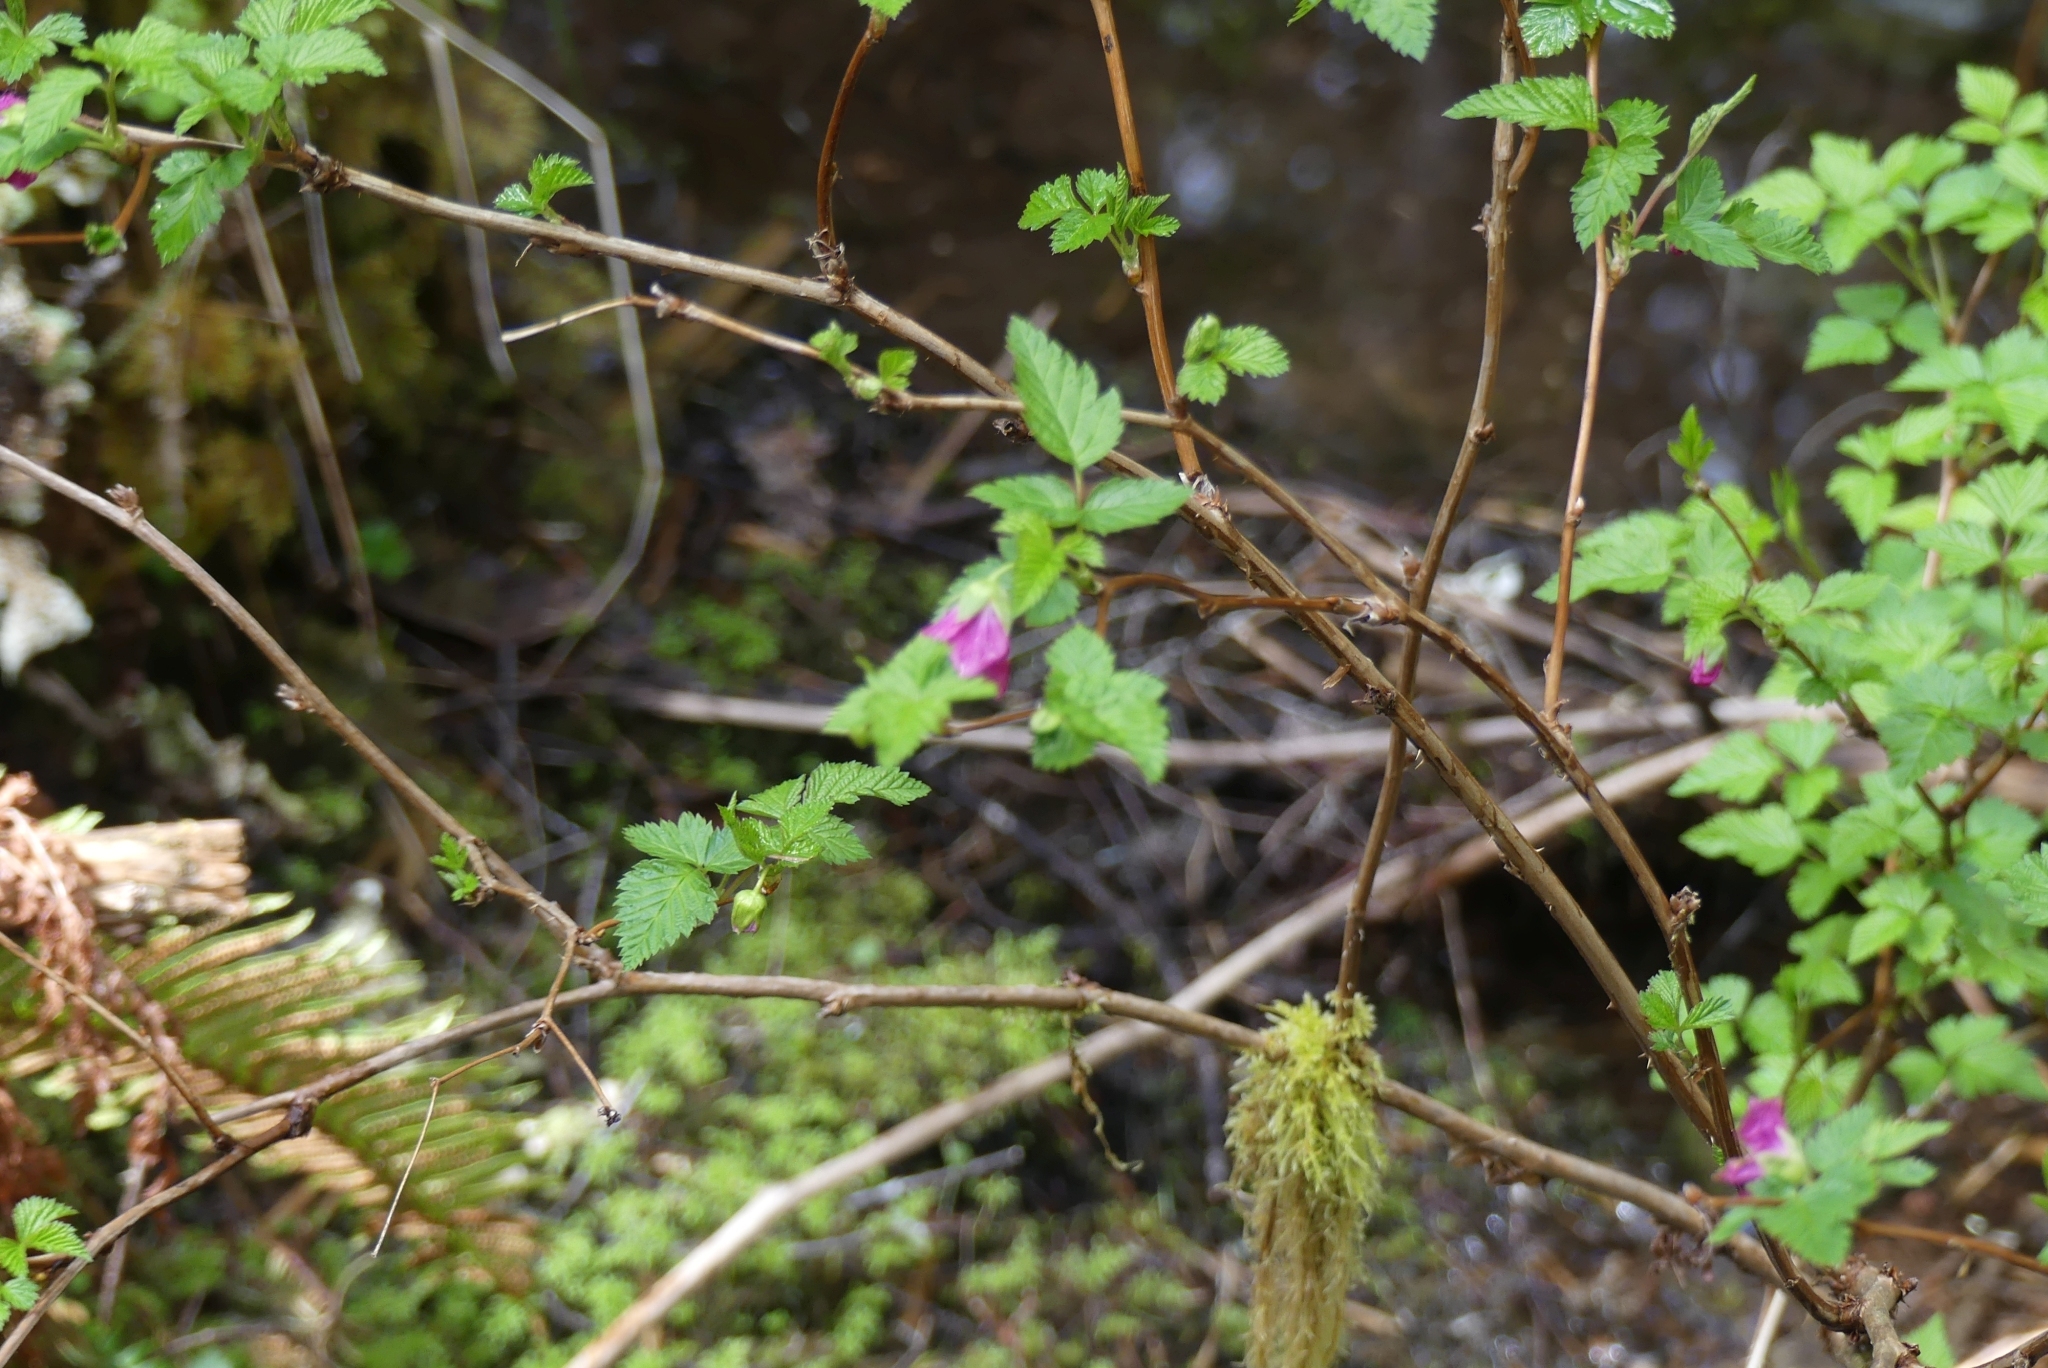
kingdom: Plantae
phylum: Tracheophyta
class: Magnoliopsida
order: Rosales
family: Rosaceae
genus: Rubus
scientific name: Rubus spectabilis
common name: Salmonberry
